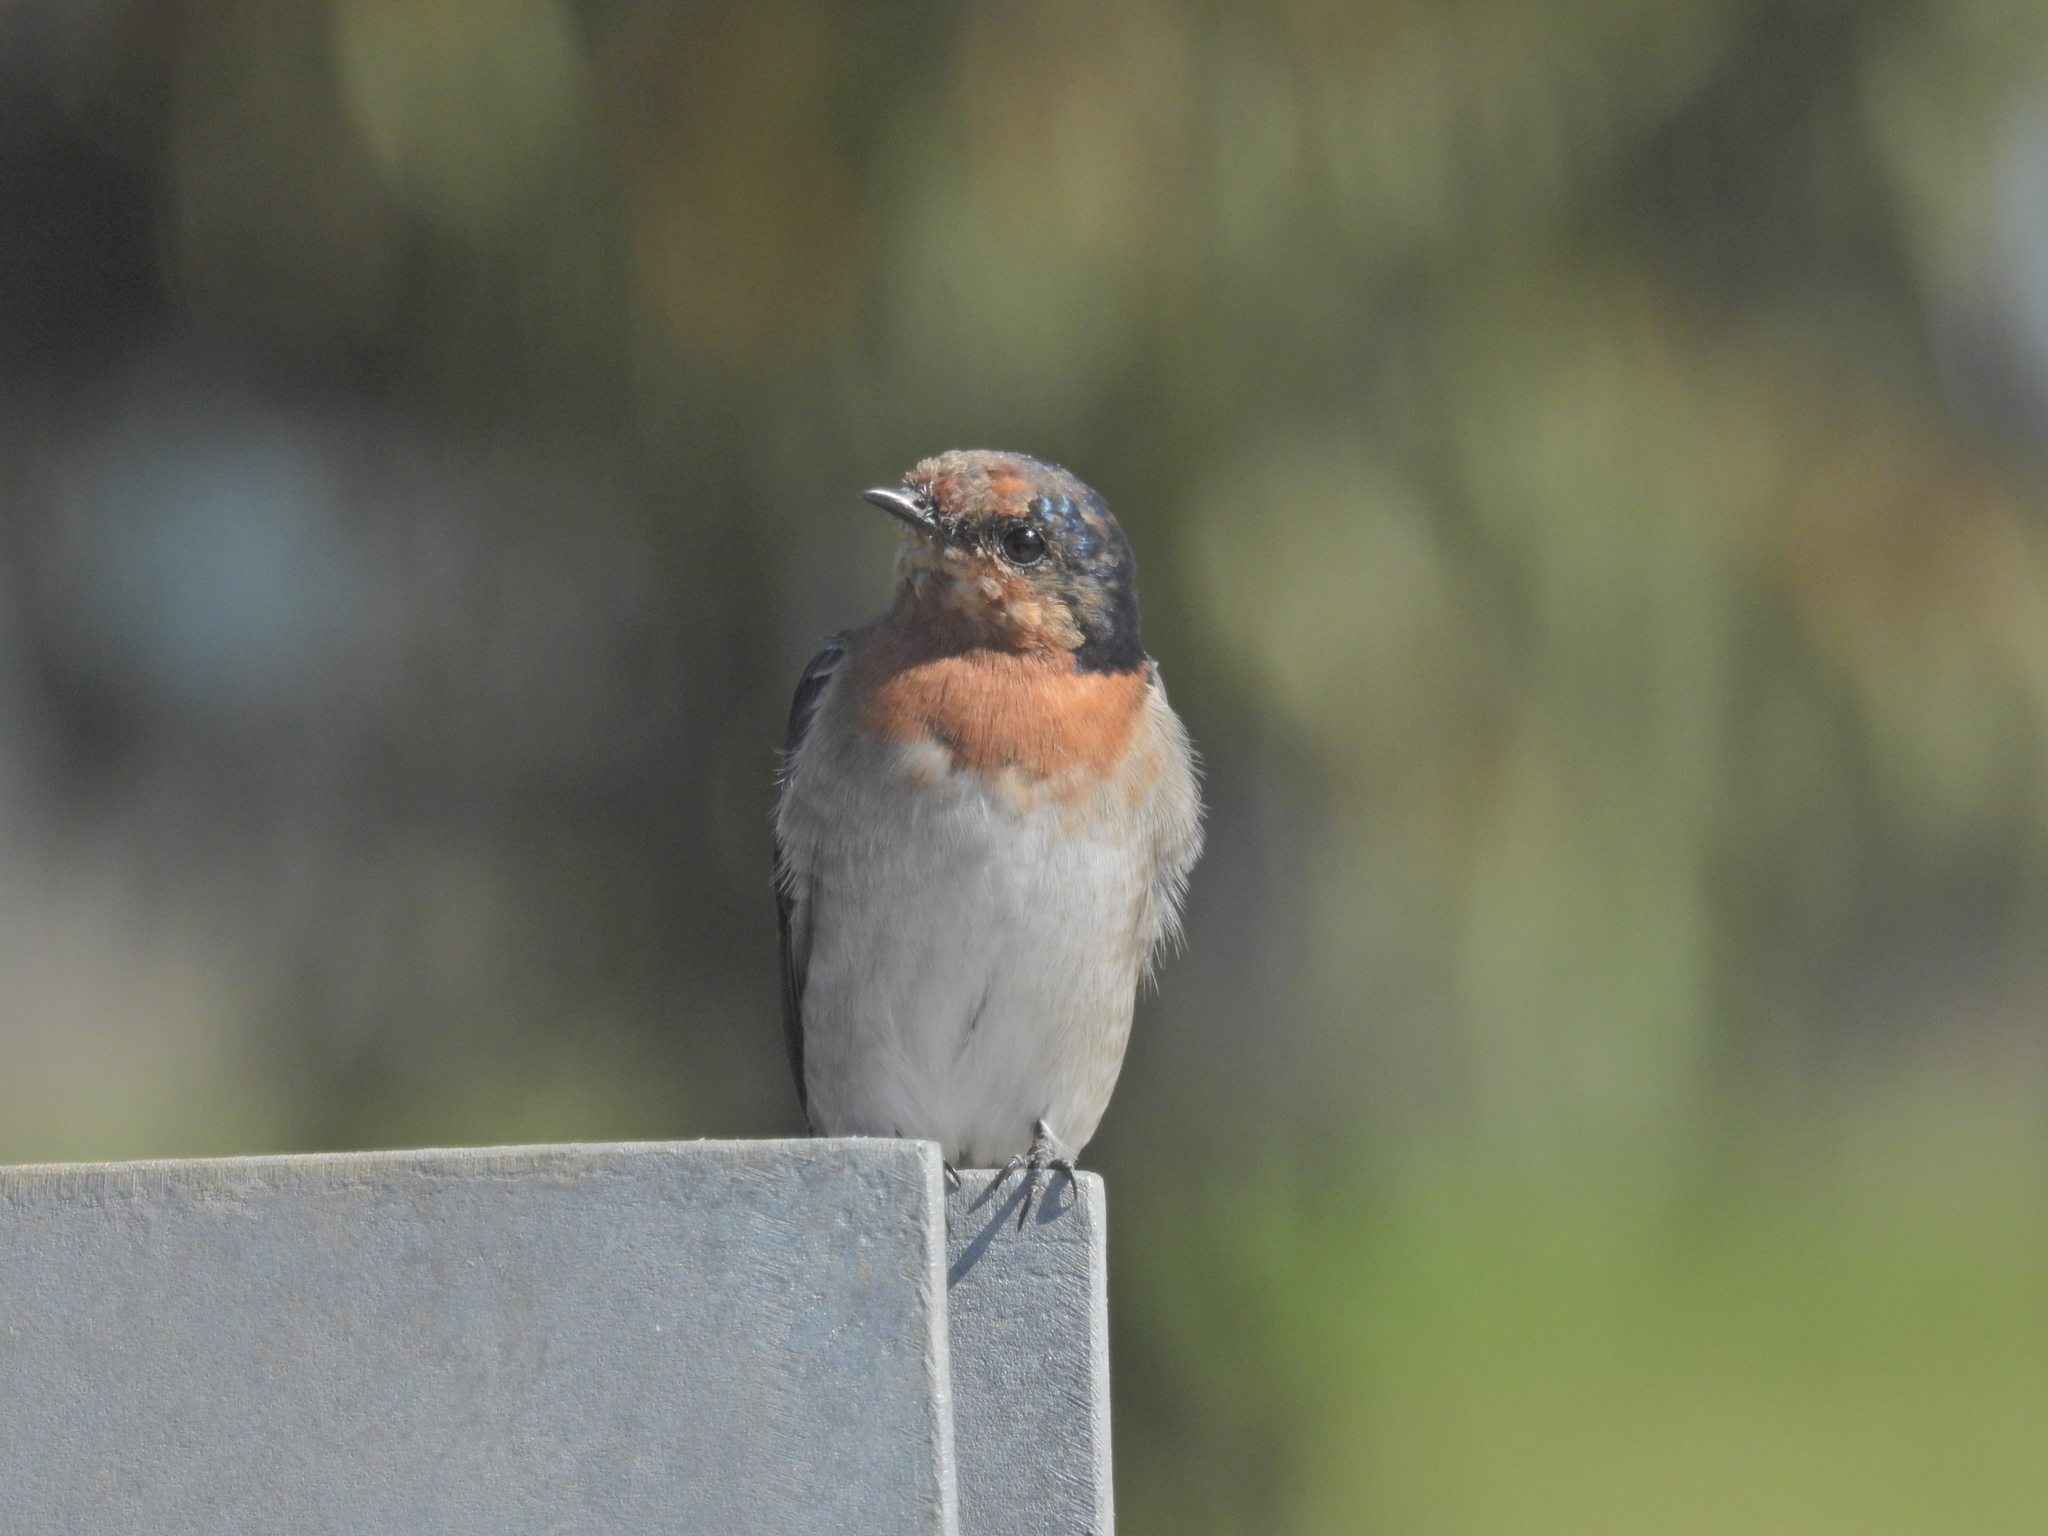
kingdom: Animalia
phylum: Chordata
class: Aves
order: Passeriformes
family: Hirundinidae
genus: Hirundo
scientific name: Hirundo neoxena
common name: Welcome swallow
